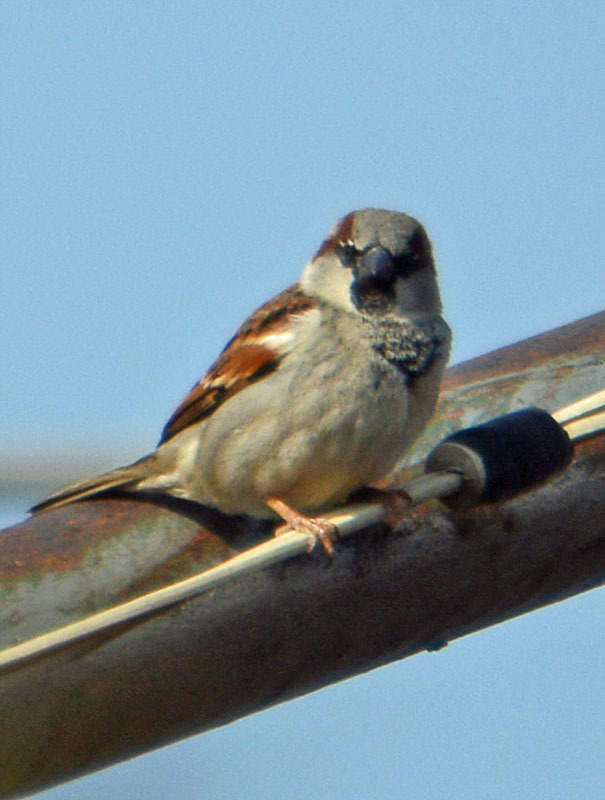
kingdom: Animalia
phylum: Chordata
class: Aves
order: Passeriformes
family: Passeridae
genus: Passer
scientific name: Passer domesticus
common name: House sparrow
